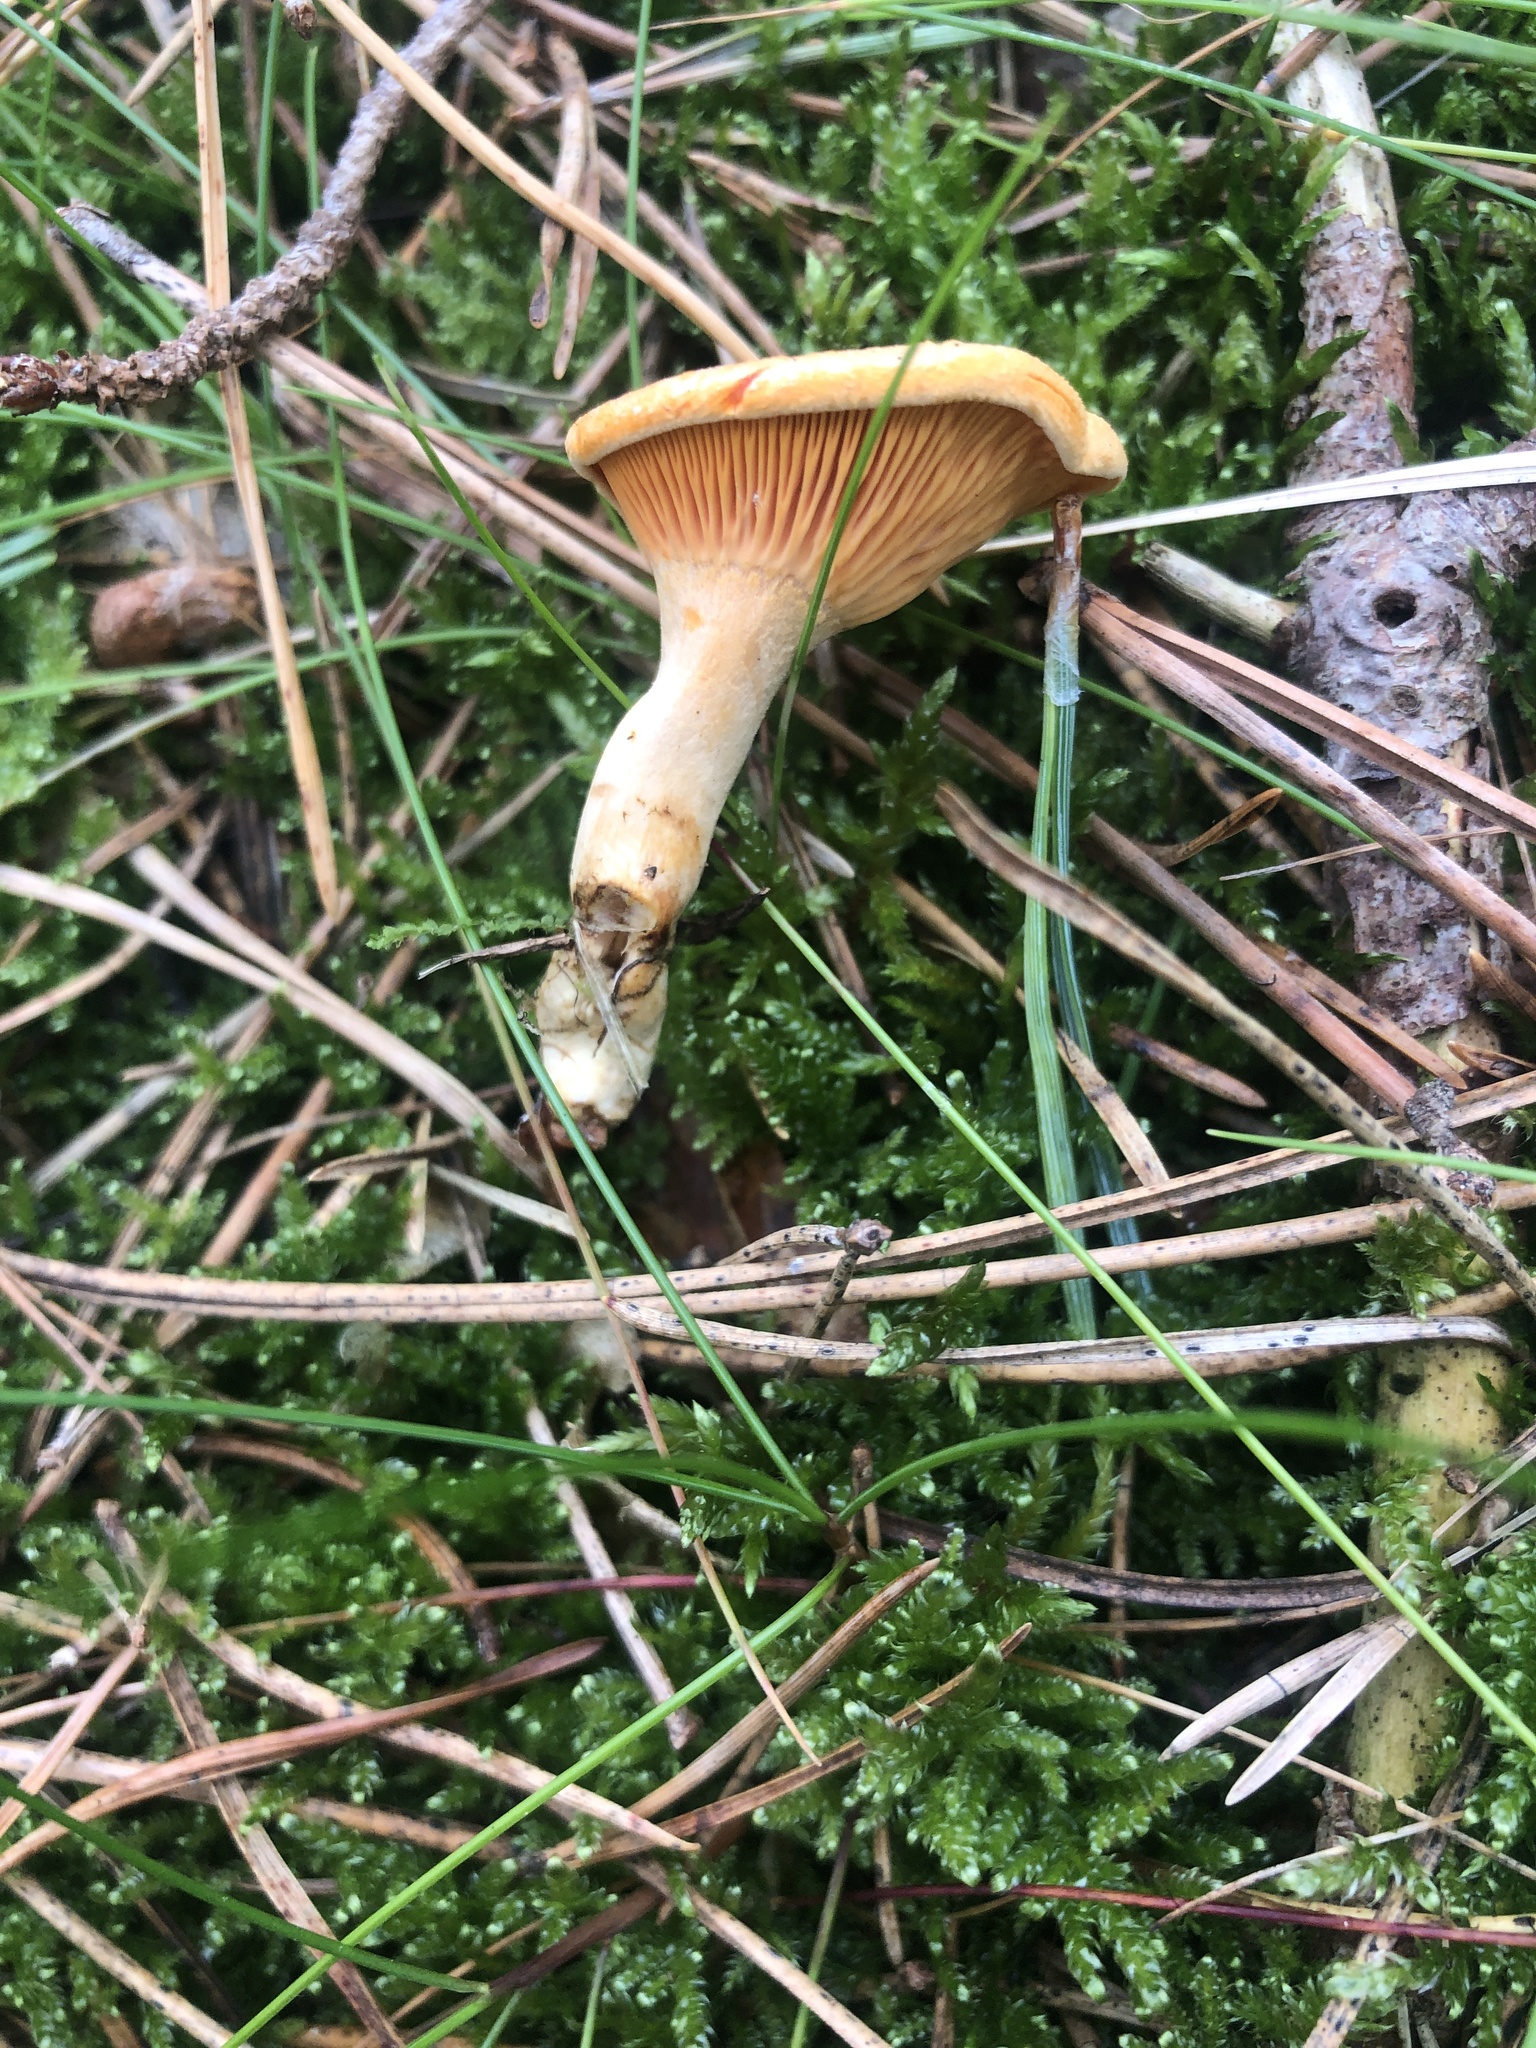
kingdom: Fungi
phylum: Basidiomycota
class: Agaricomycetes
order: Boletales
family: Hygrophoropsidaceae
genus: Hygrophoropsis
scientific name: Hygrophoropsis aurantiaca
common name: False chanterelle
